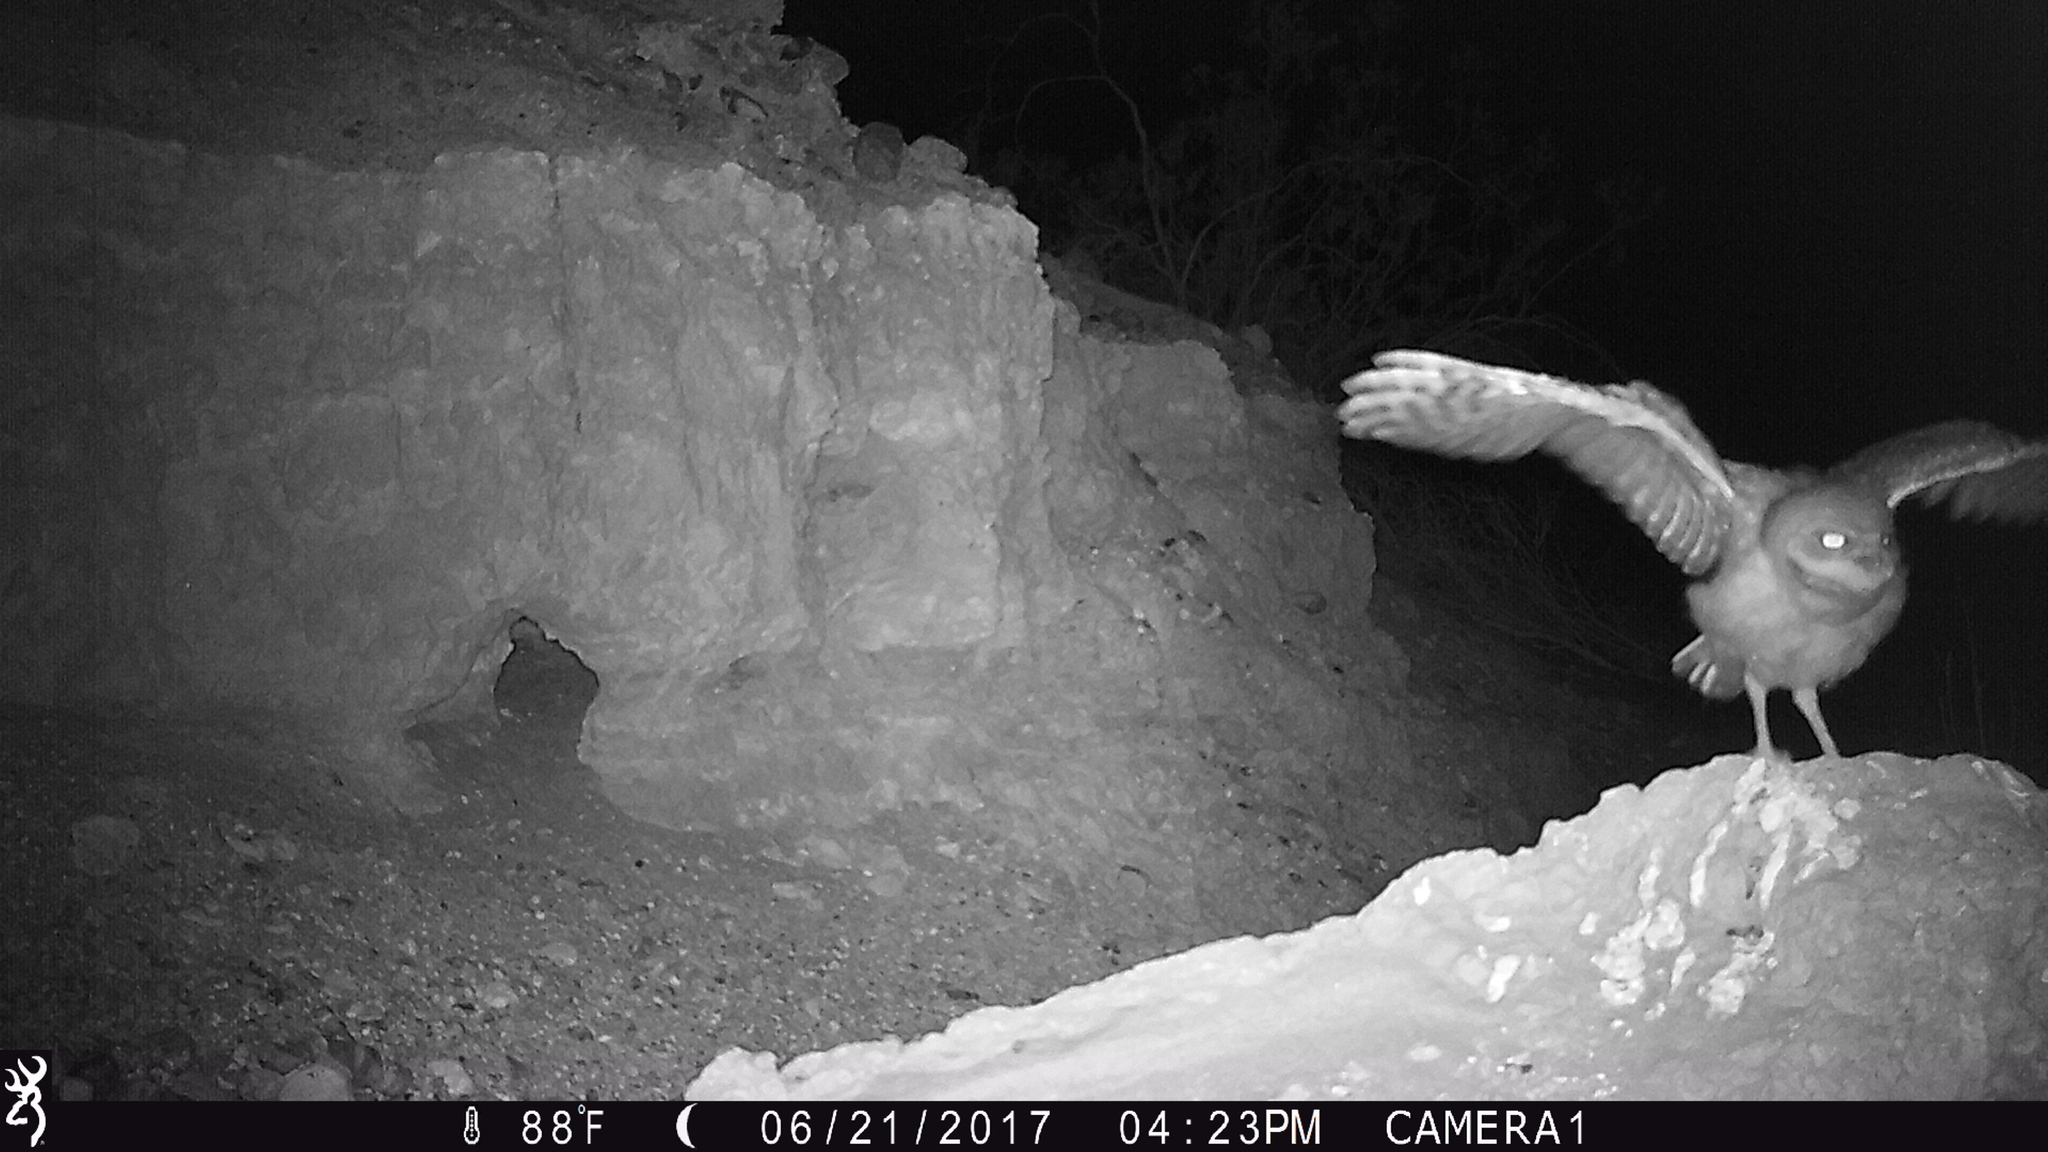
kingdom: Animalia
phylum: Chordata
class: Aves
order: Strigiformes
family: Strigidae
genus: Athene
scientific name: Athene cunicularia
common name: Burrowing owl
